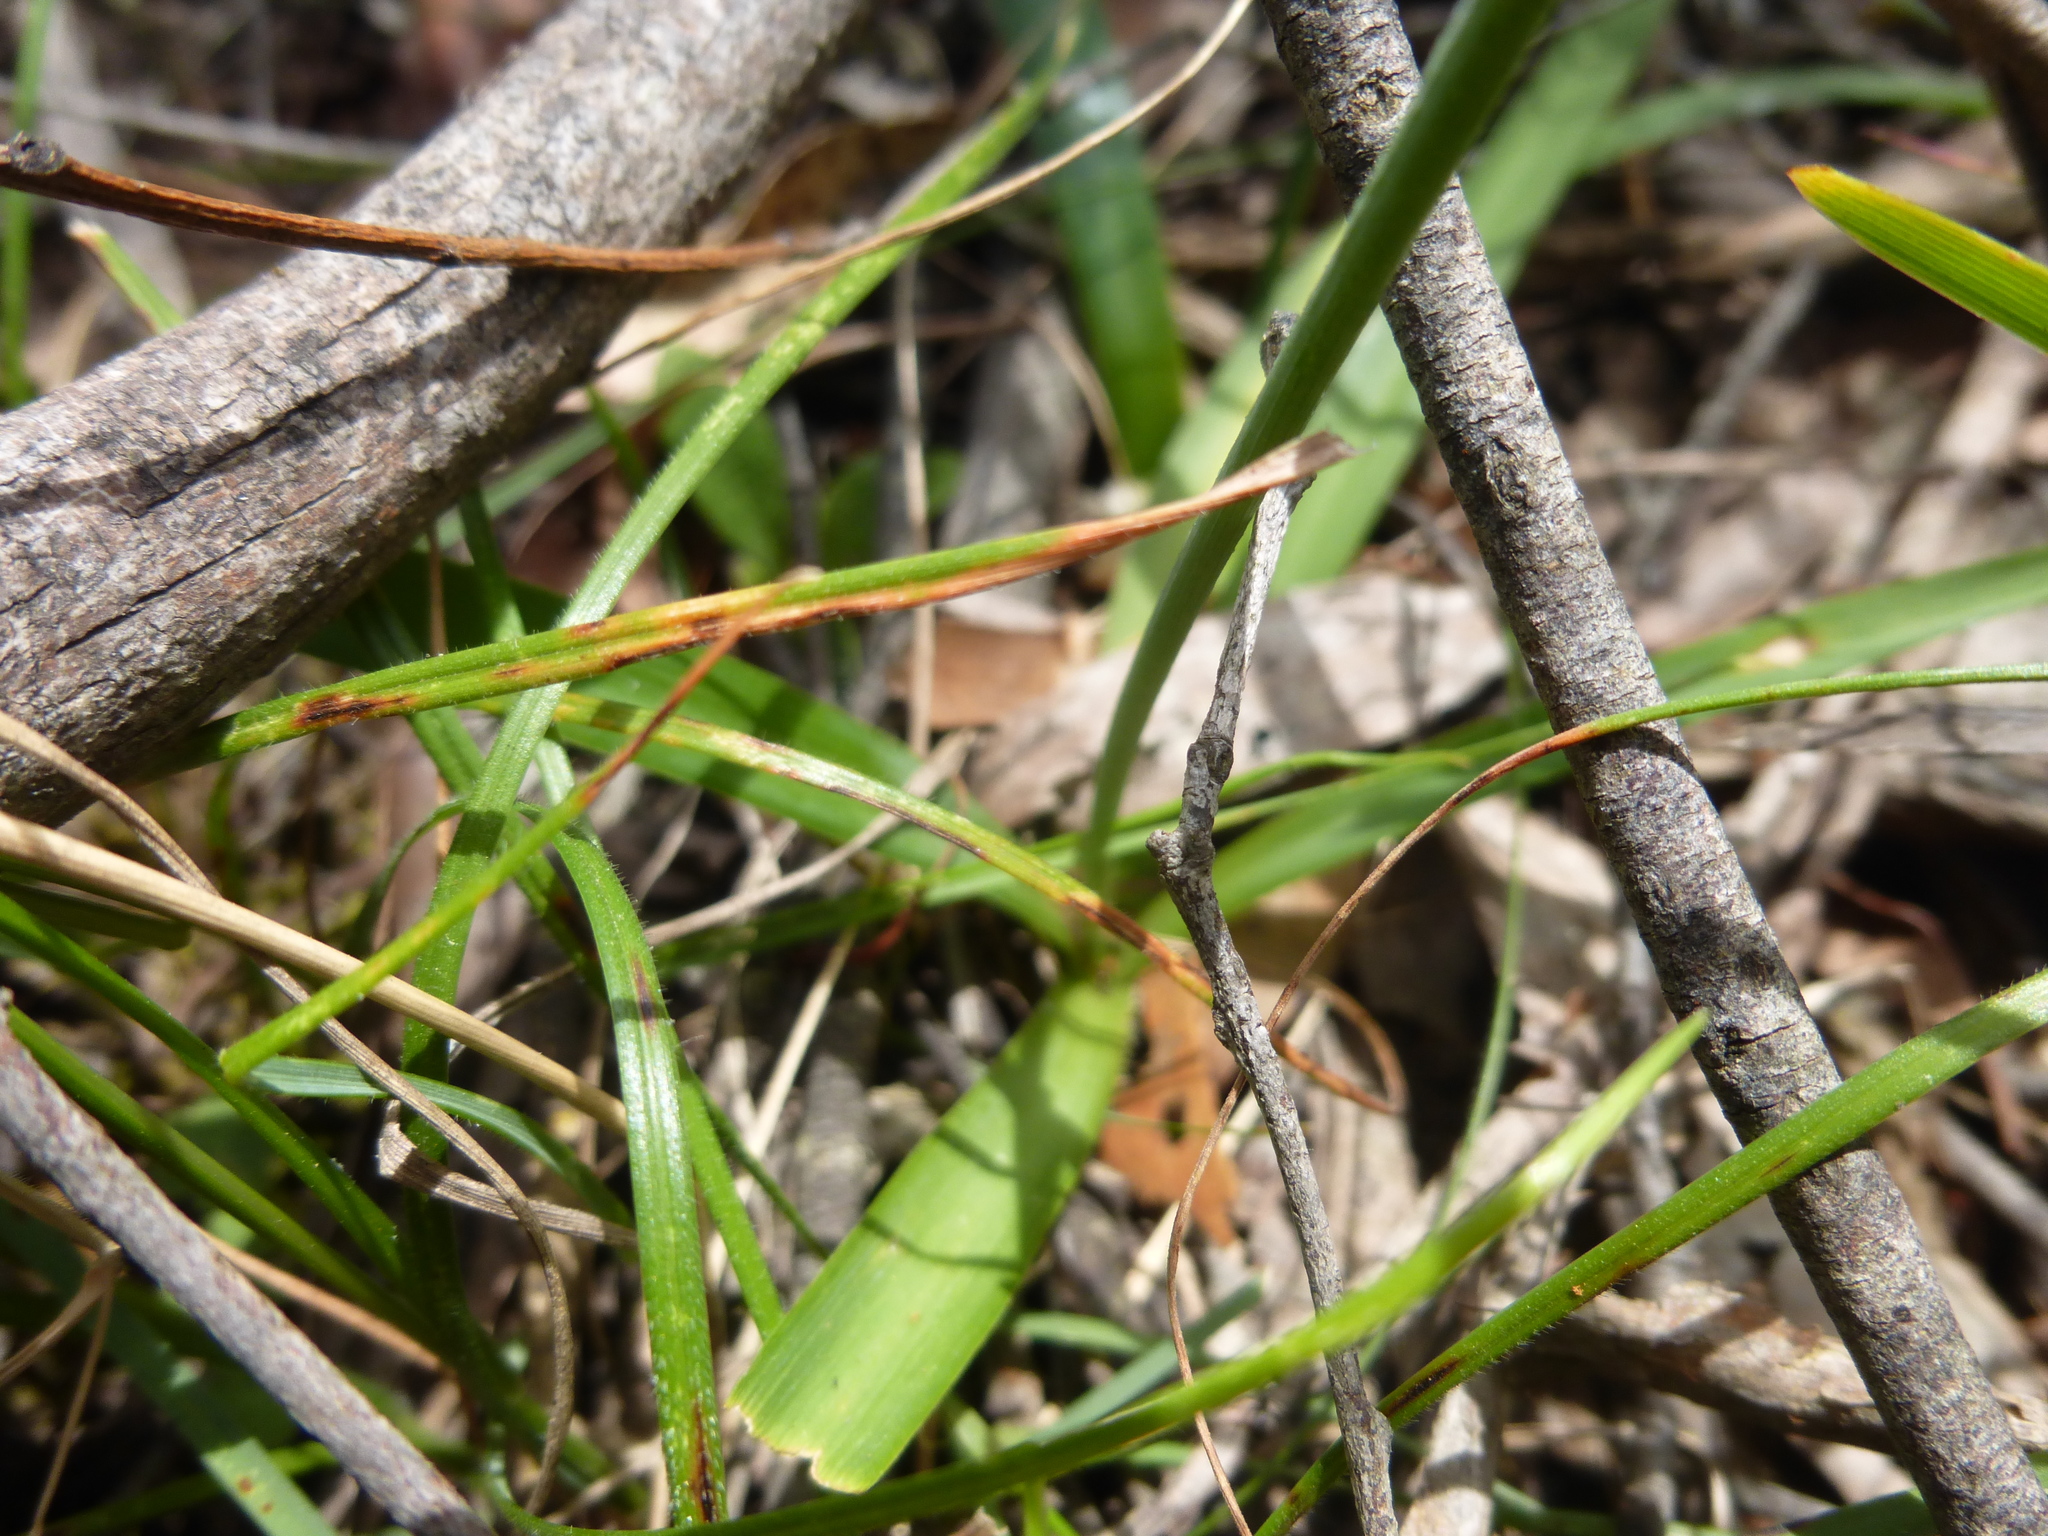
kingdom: Plantae
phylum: Tracheophyta
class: Liliopsida
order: Asparagales
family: Asparagaceae
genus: Arthropodium
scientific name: Arthropodium milleflorum
